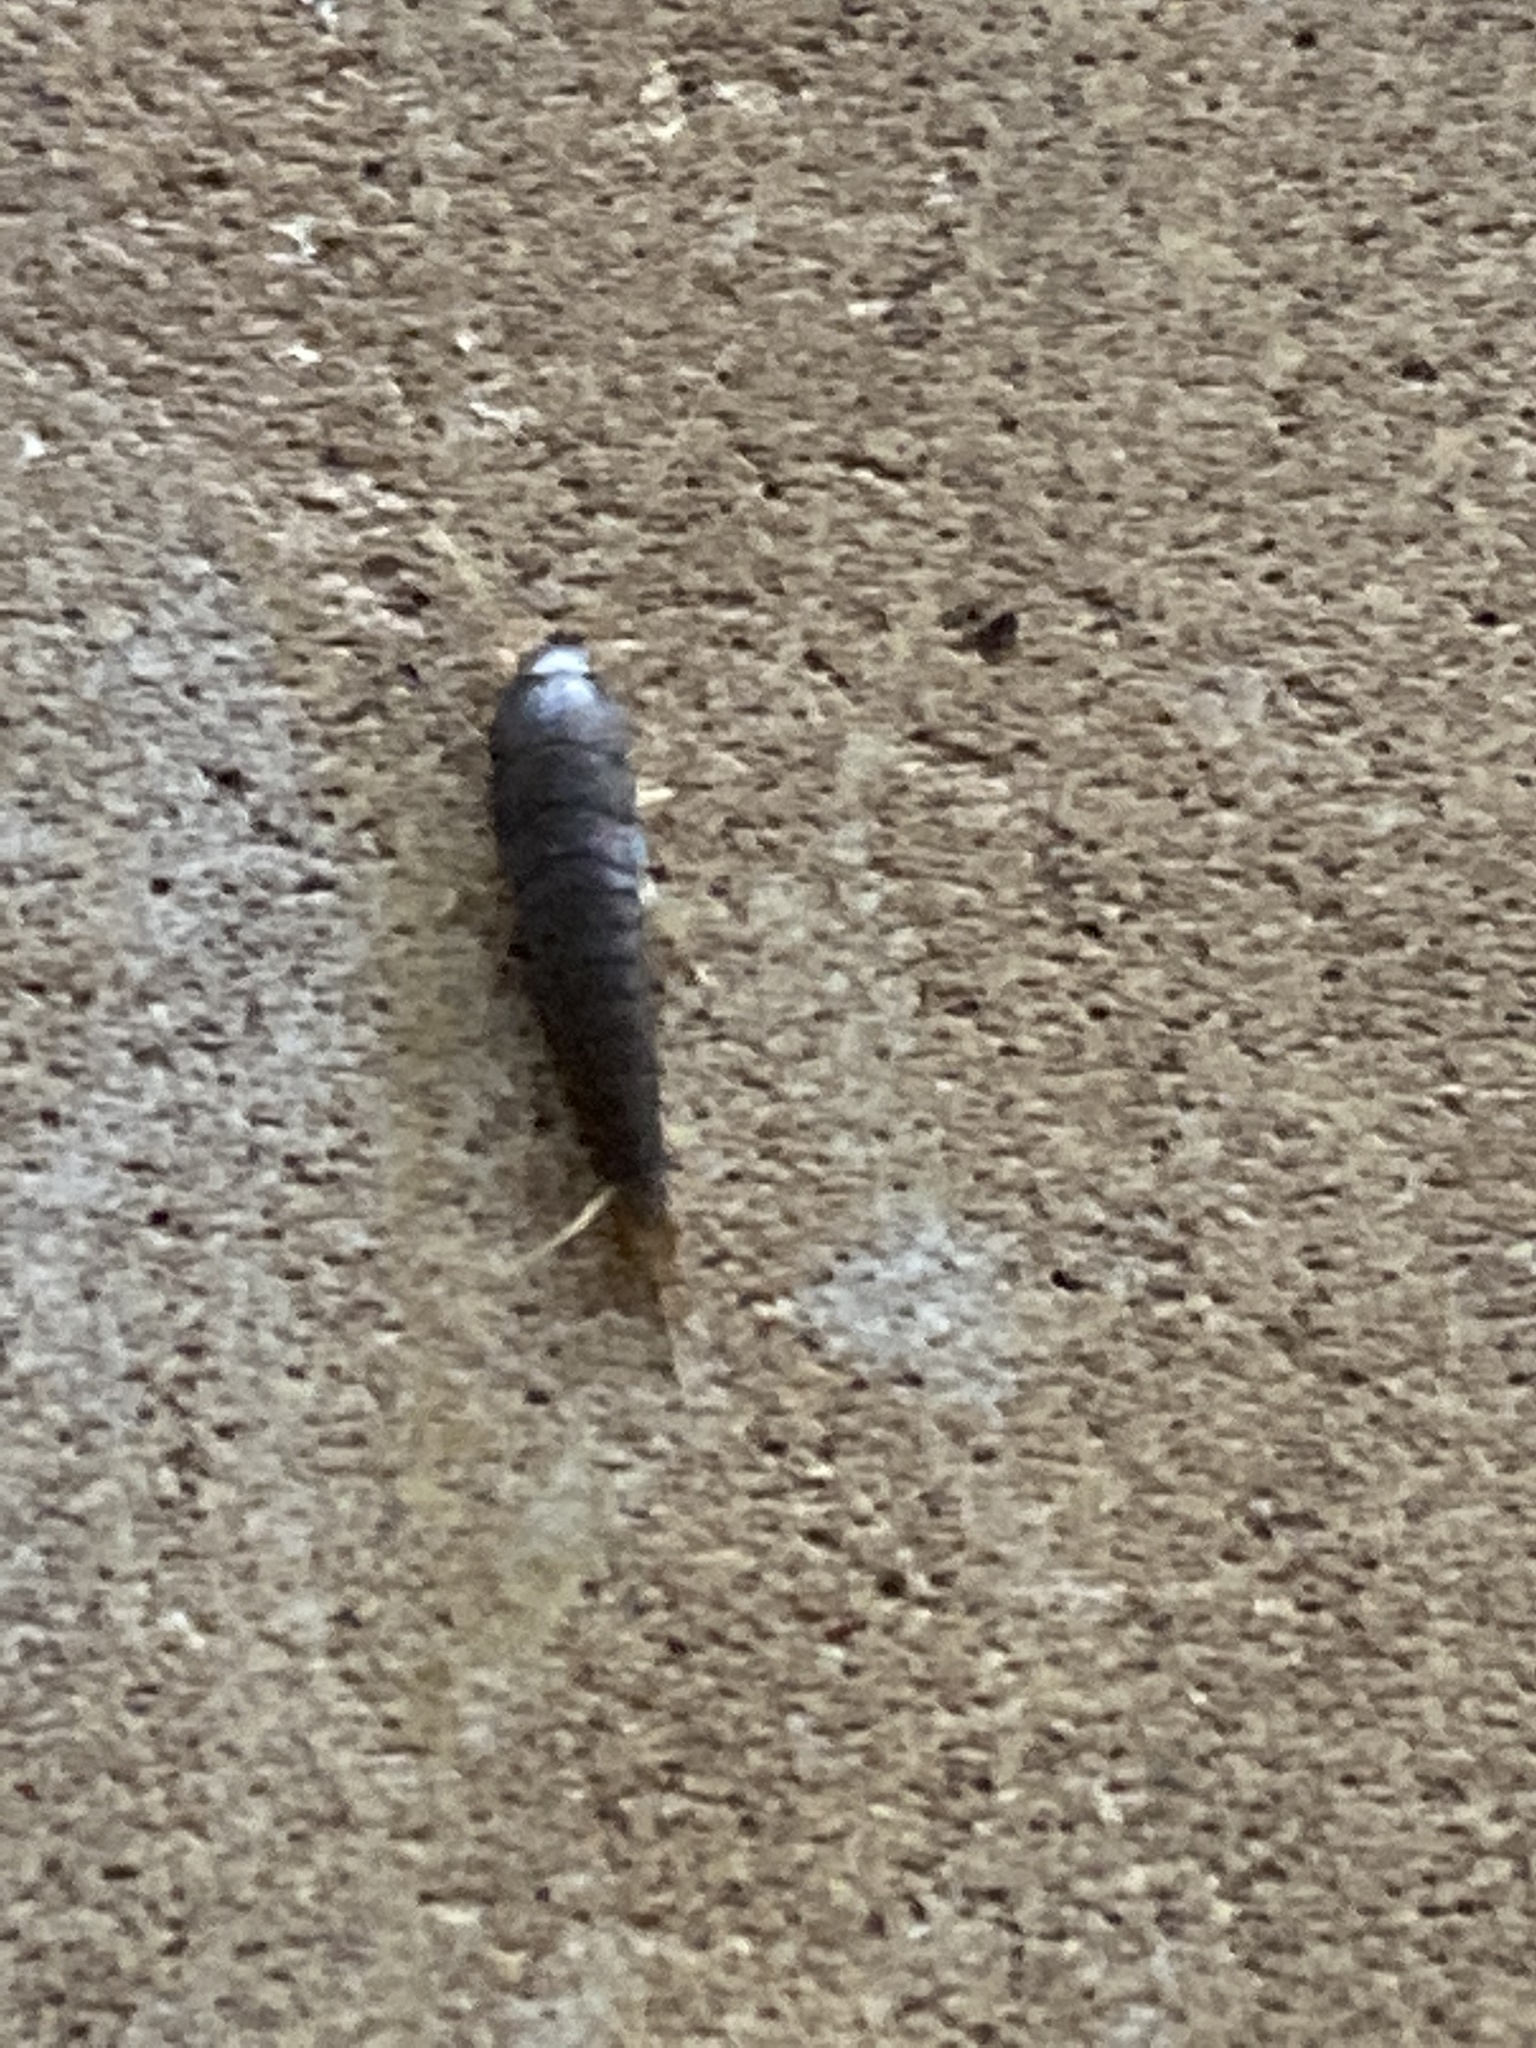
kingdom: Animalia
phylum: Arthropoda
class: Insecta
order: Zygentoma
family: Lepismatidae
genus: Lepisma
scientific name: Lepisma saccharinum
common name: Silverfish
